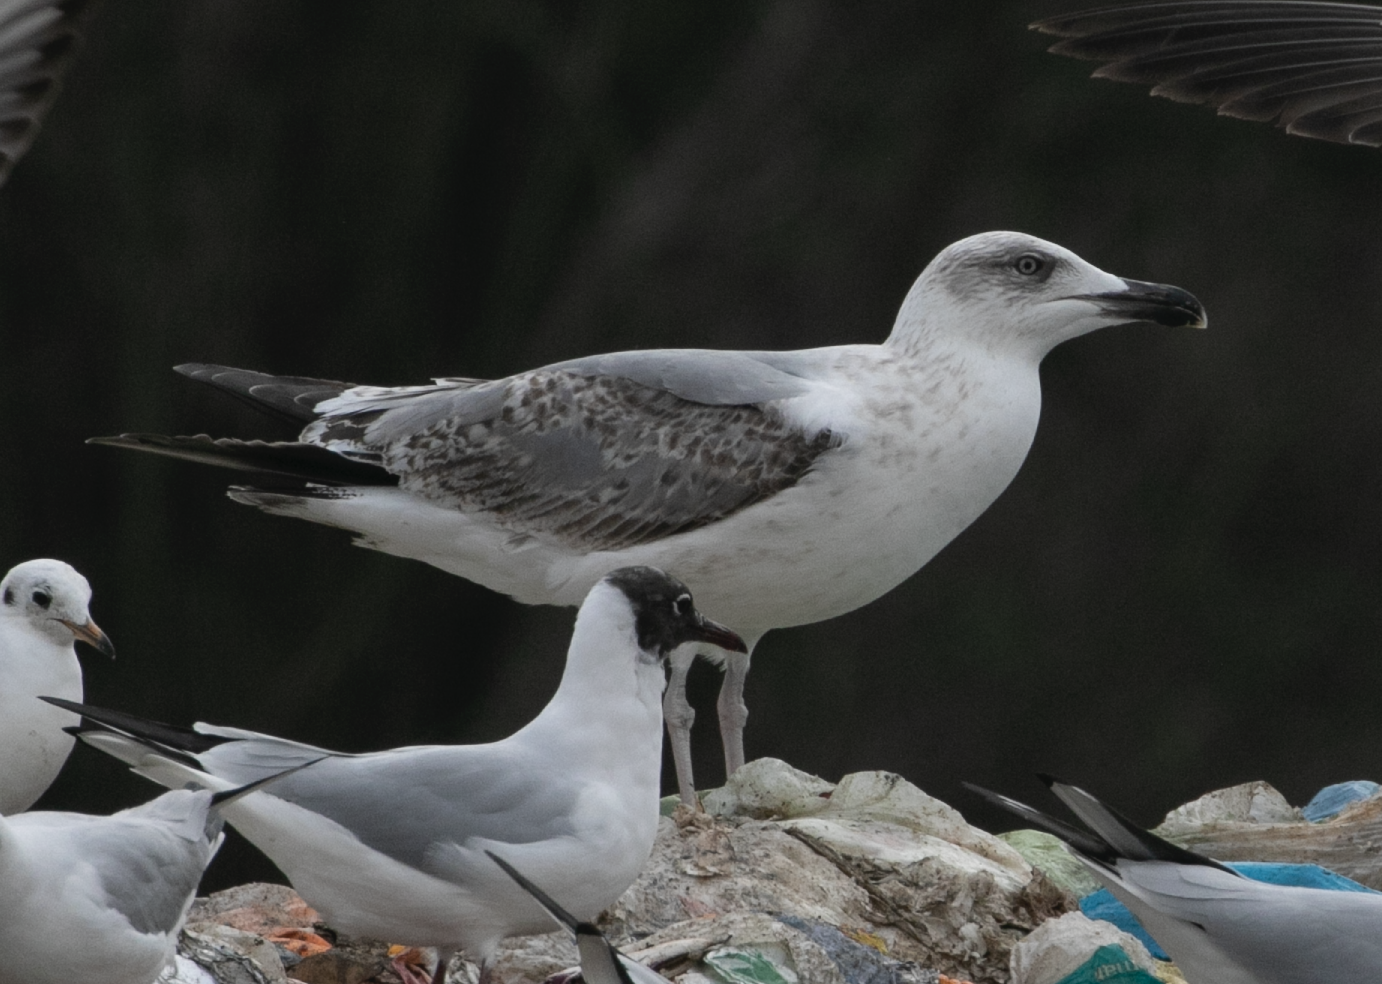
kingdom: Animalia
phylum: Chordata
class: Aves
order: Charadriiformes
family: Laridae
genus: Larus
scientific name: Larus michahellis
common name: Yellow-legged gull
